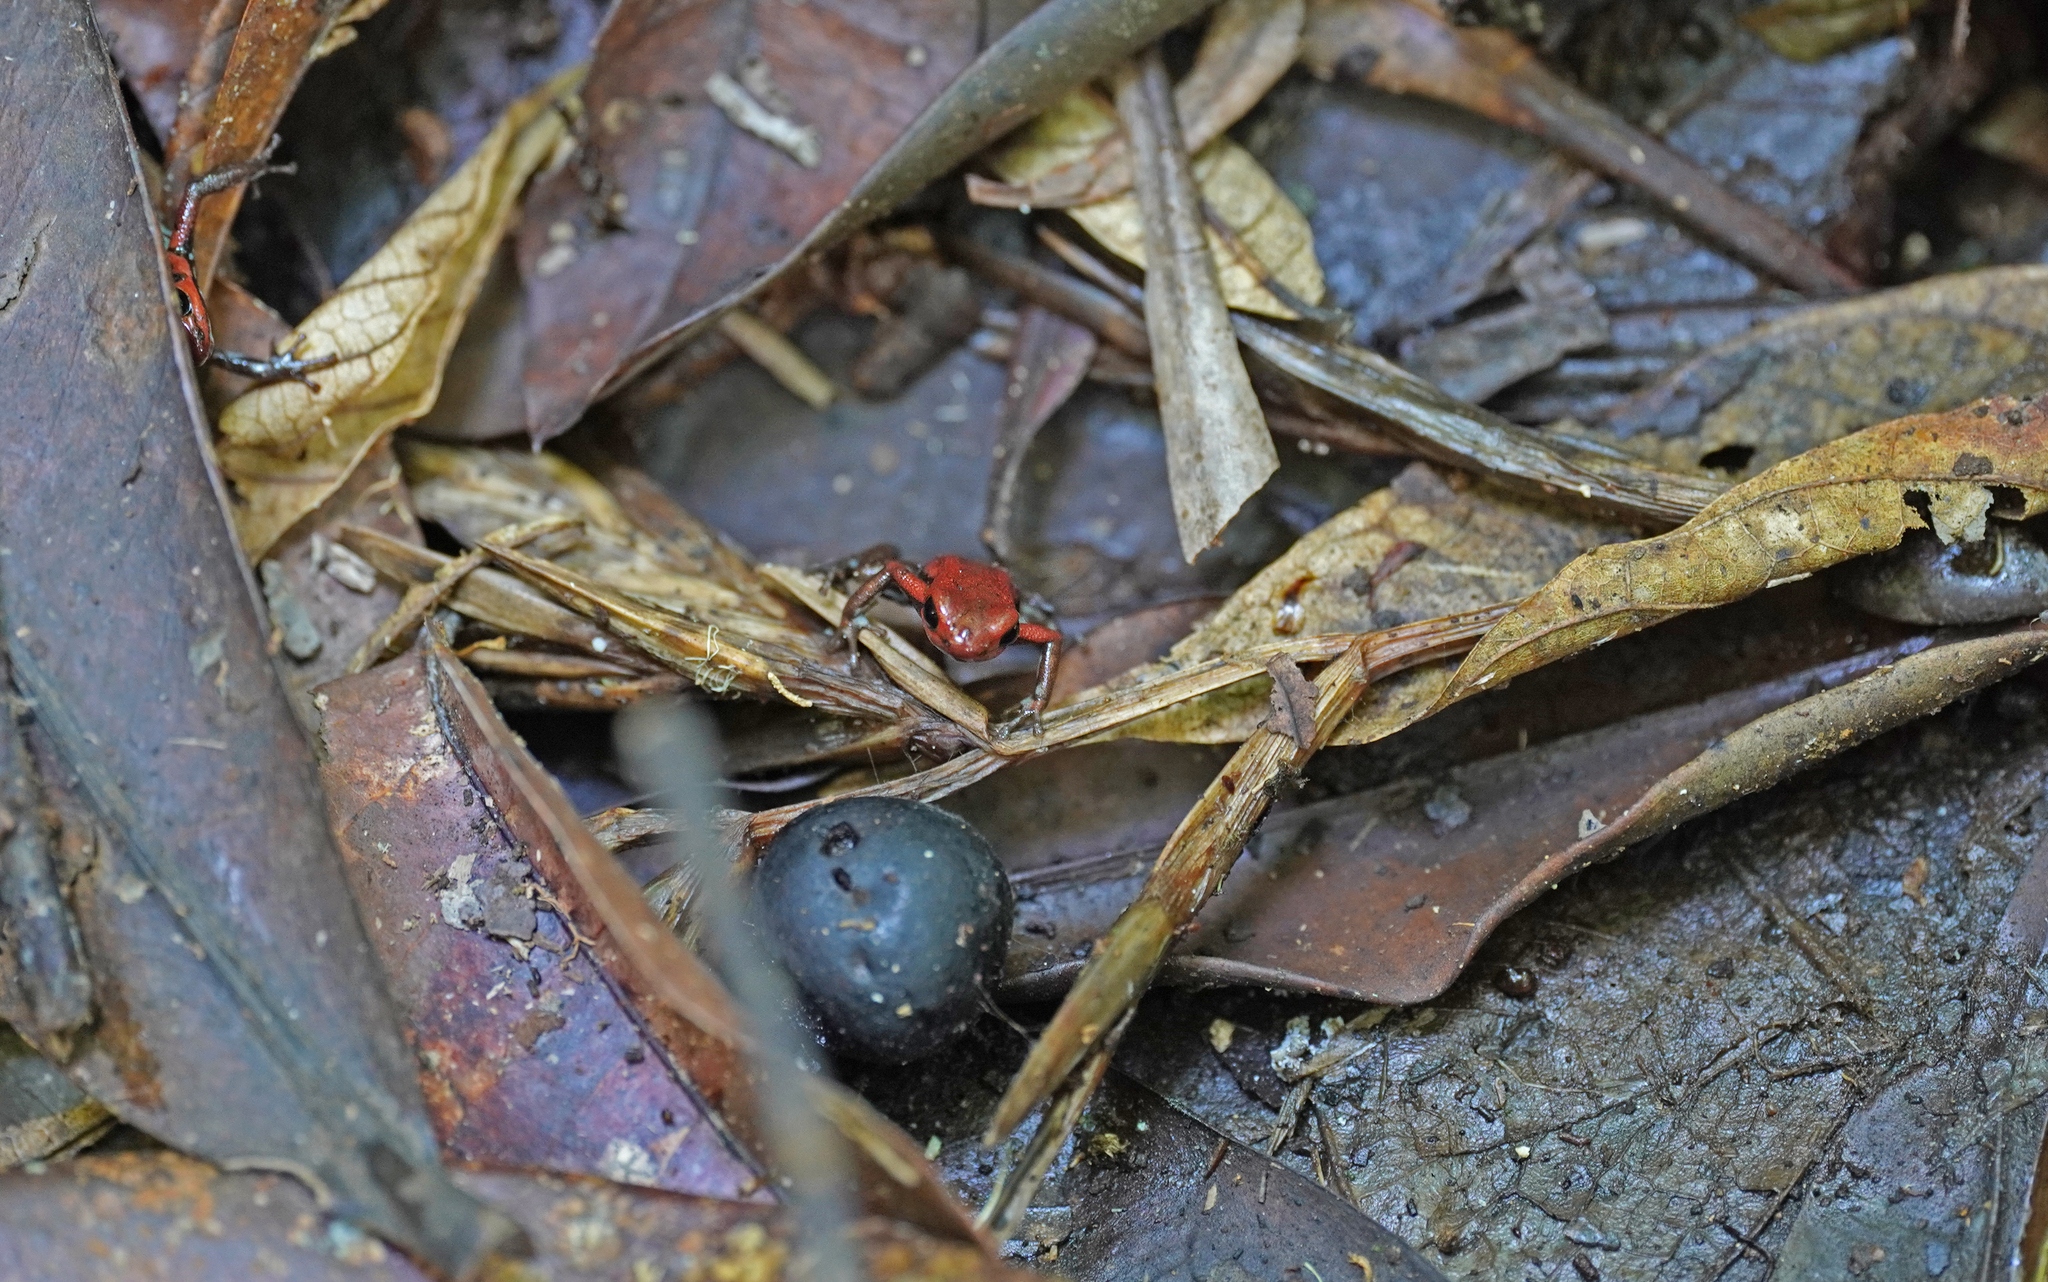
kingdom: Animalia
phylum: Chordata
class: Amphibia
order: Anura
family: Dendrobatidae
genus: Andinobates
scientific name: Andinobates opisthomelas
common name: Andean poison frog
